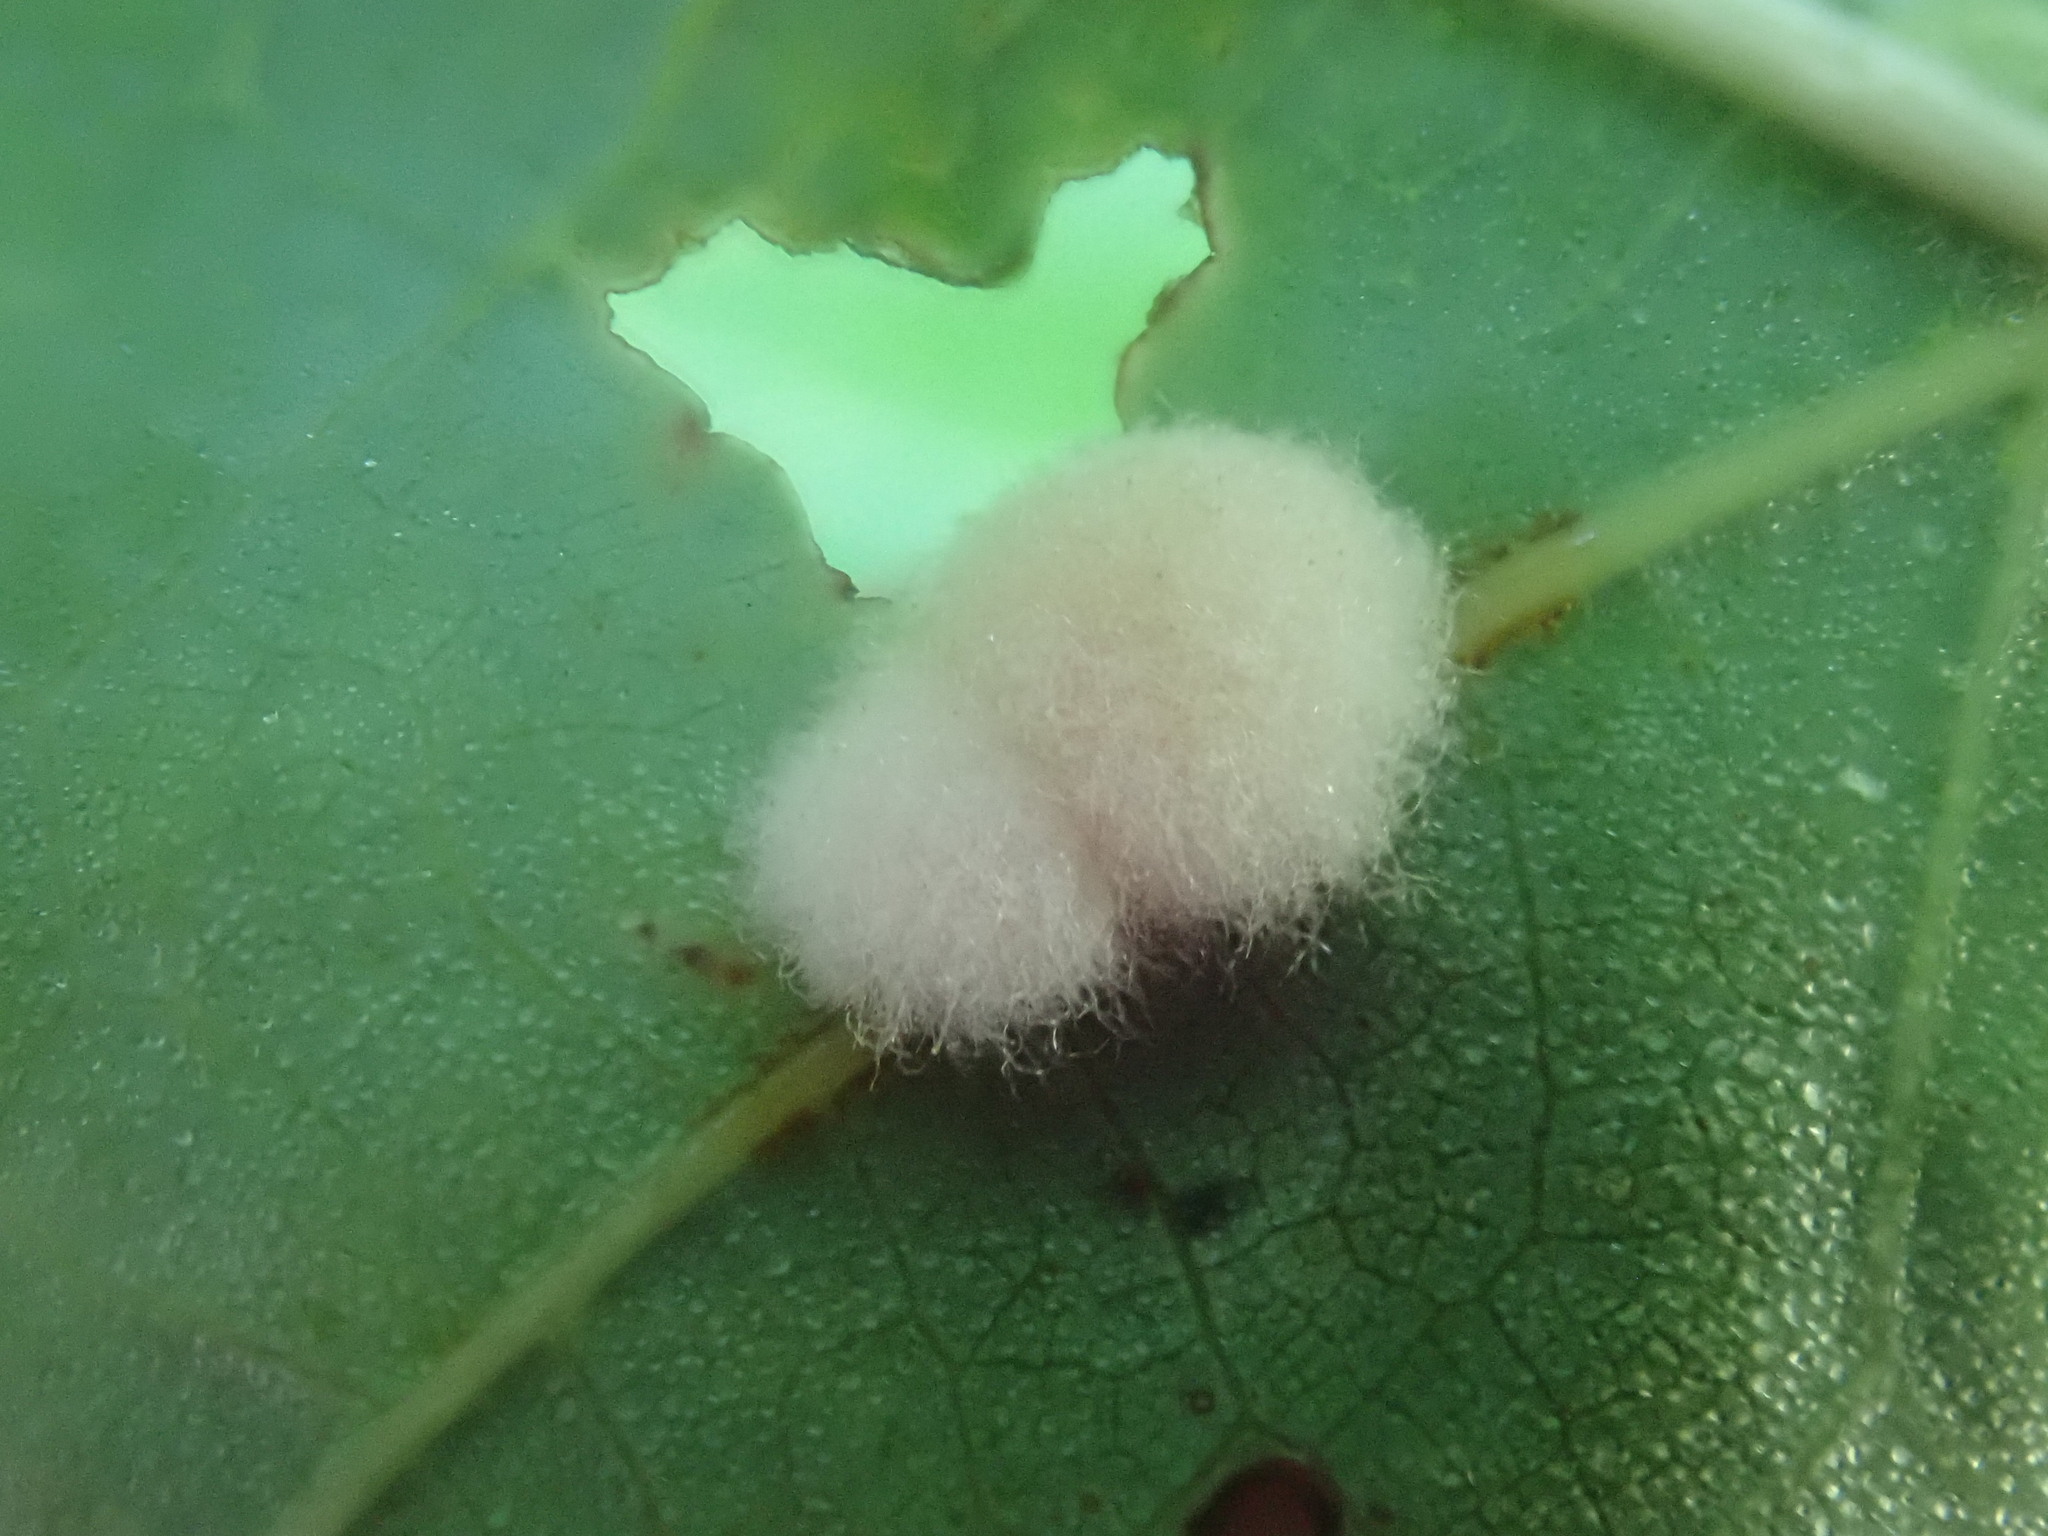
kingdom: Animalia
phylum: Arthropoda
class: Insecta
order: Hymenoptera
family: Cynipidae
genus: Callirhytis
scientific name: Callirhytis
